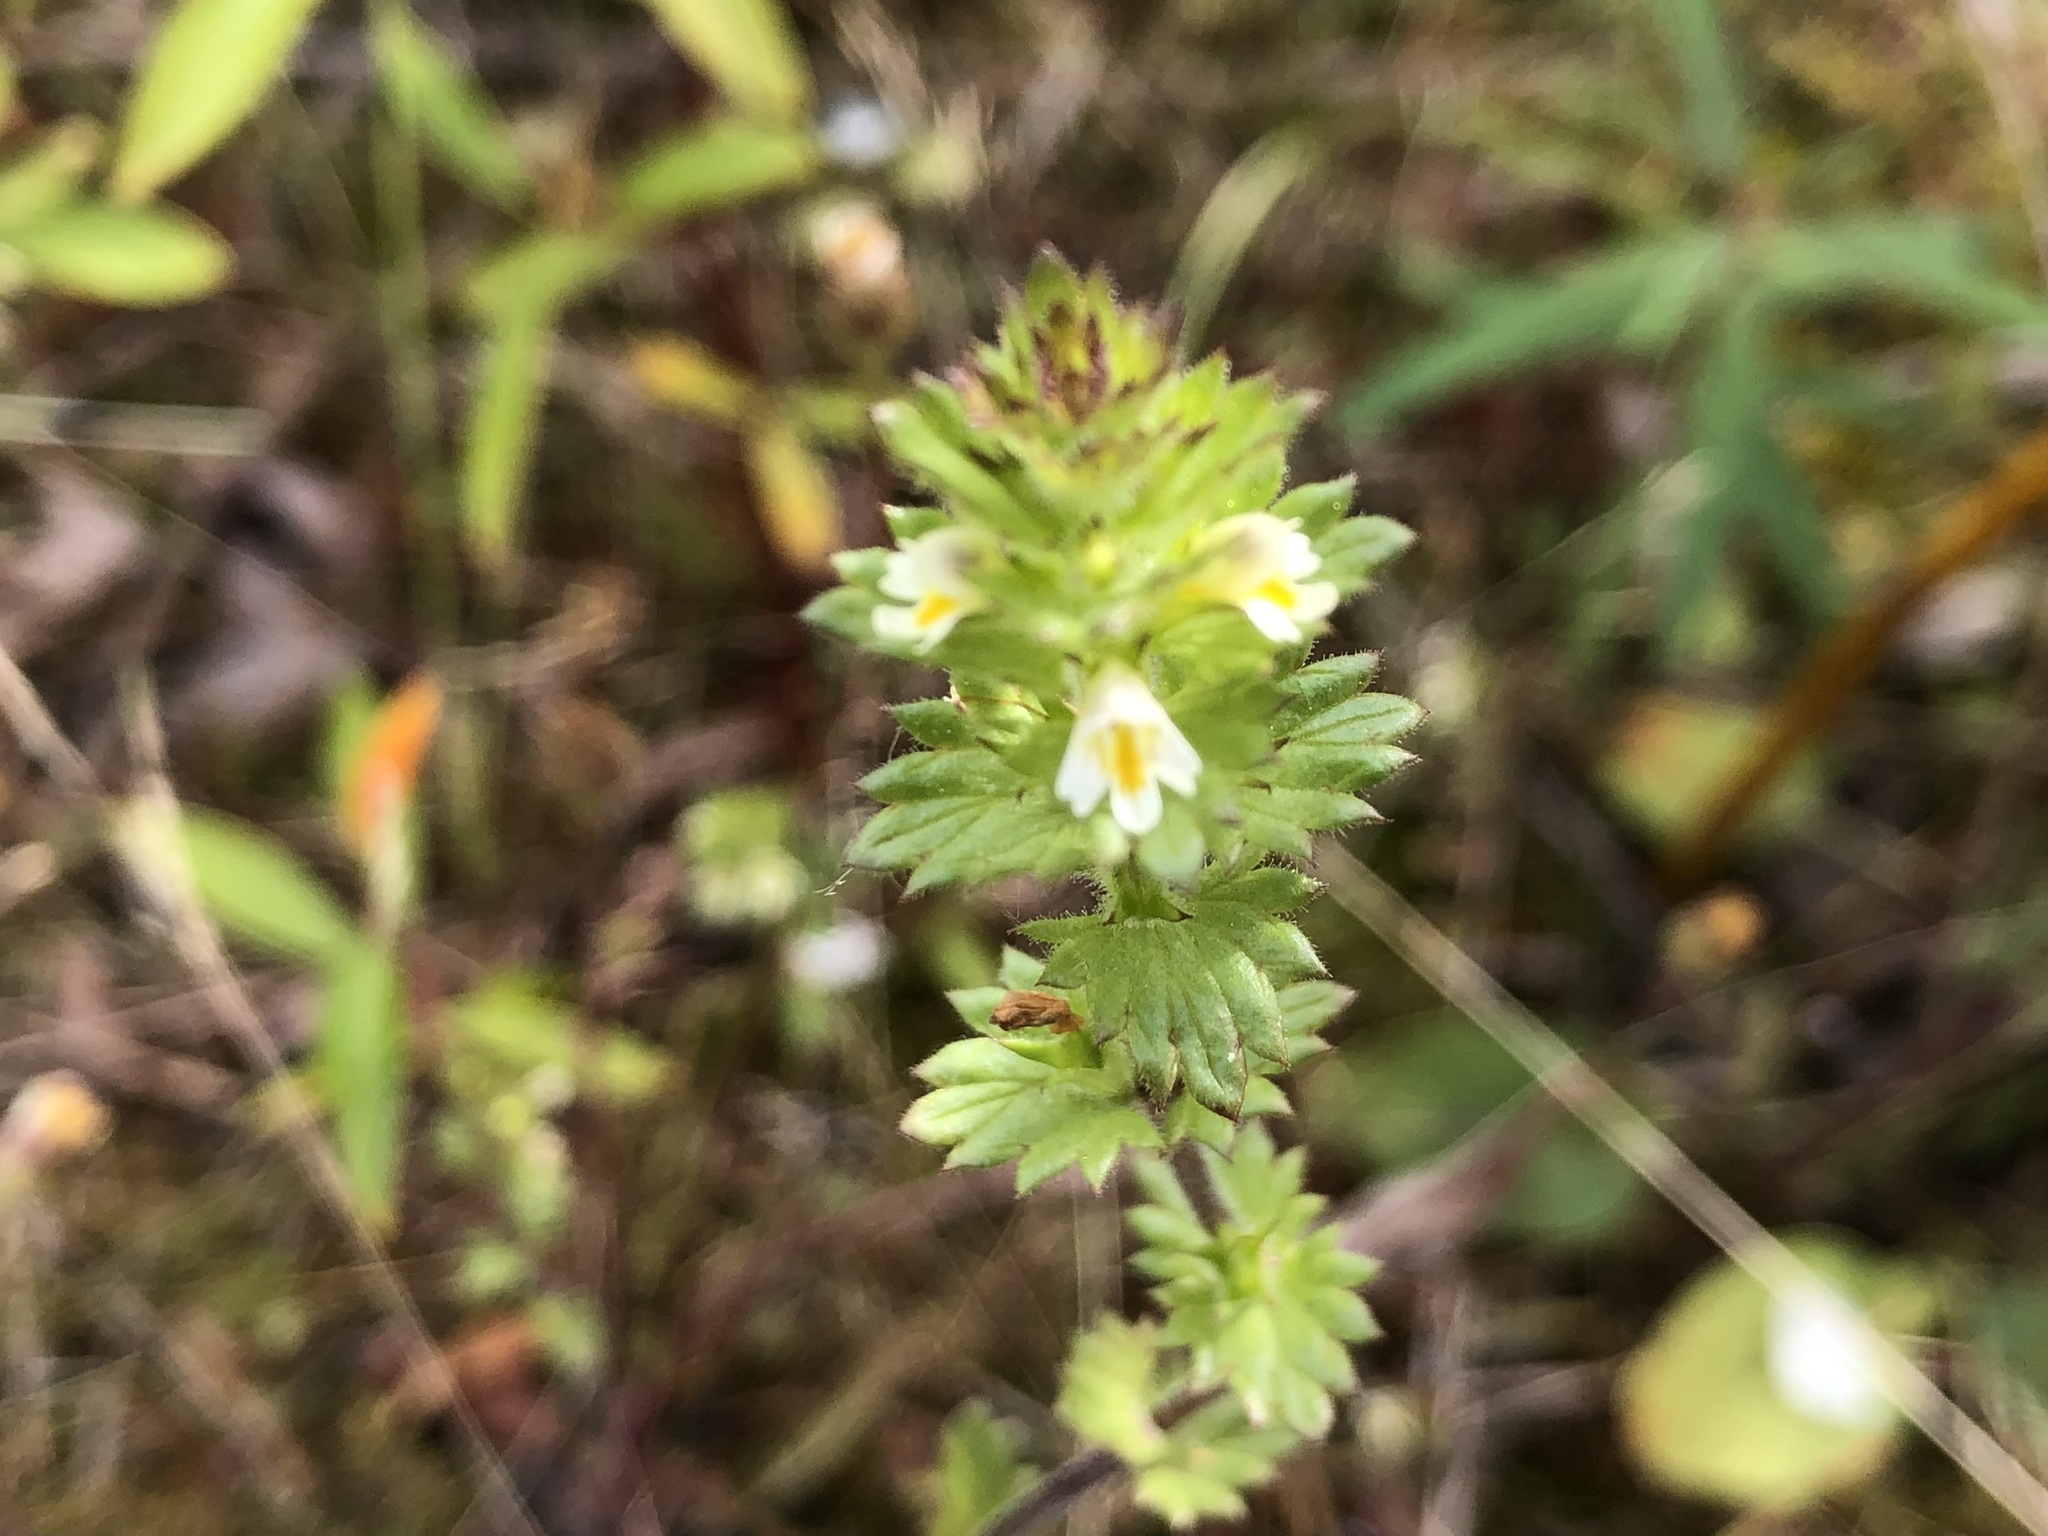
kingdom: Plantae
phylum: Tracheophyta
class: Magnoliopsida
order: Lamiales
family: Orobanchaceae
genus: Euphrasia
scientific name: Euphrasia subarctica
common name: Subarctic eyebright
